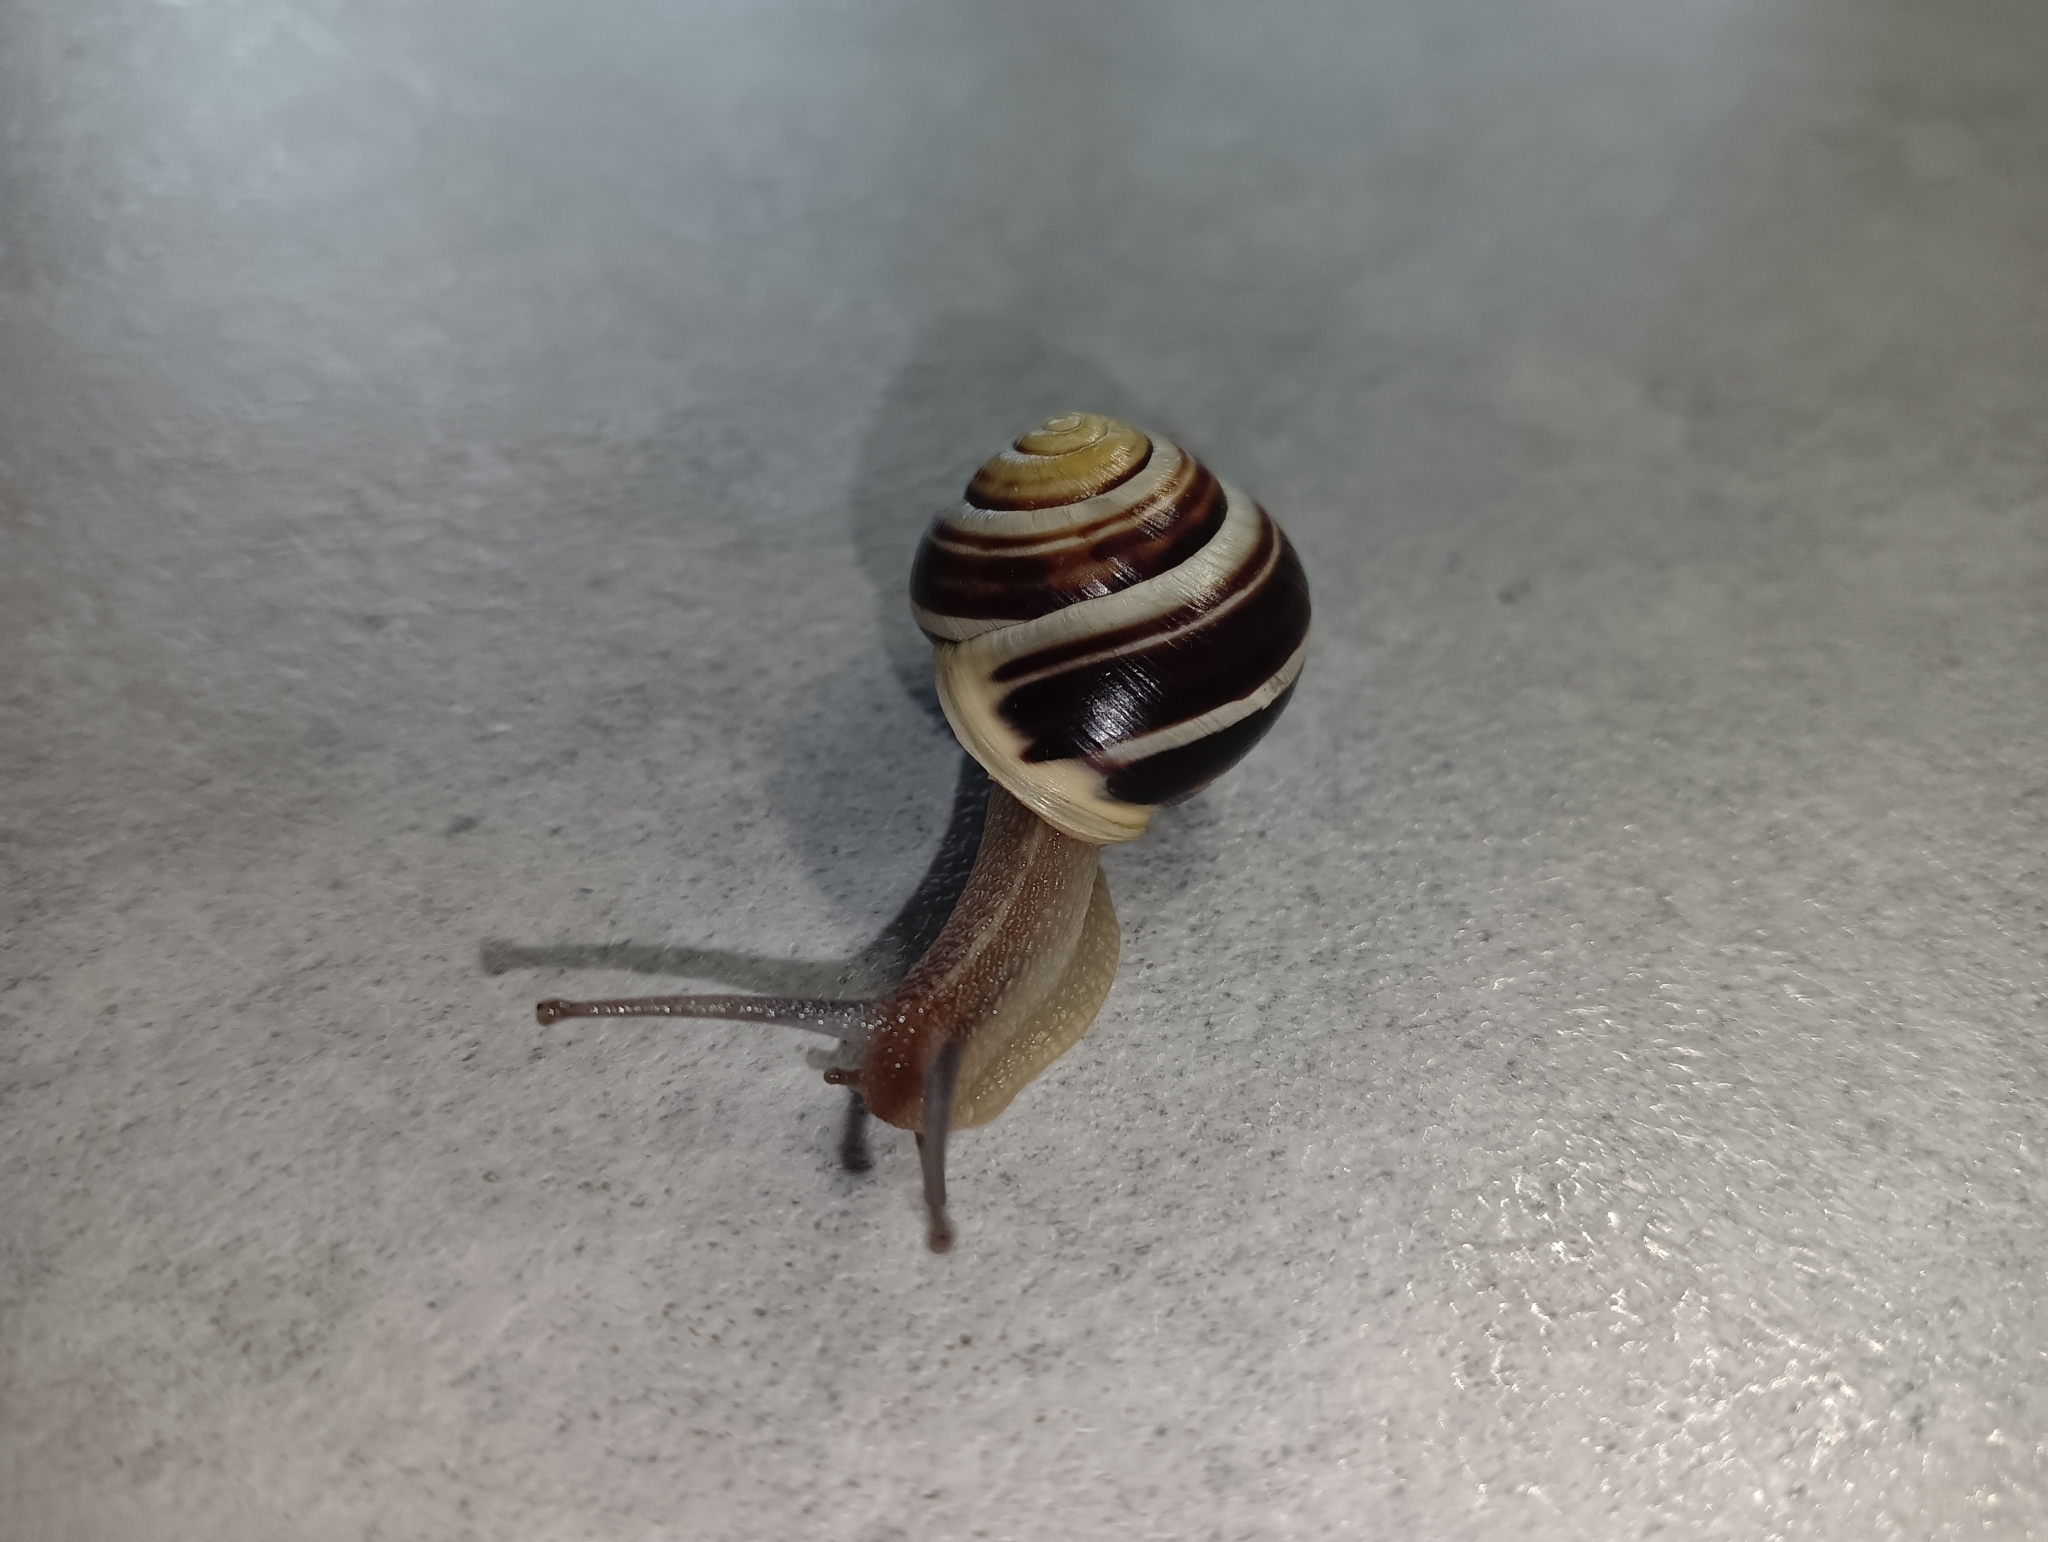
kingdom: Animalia
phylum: Mollusca
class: Gastropoda
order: Stylommatophora
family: Helicidae
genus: Cepaea
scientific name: Cepaea hortensis
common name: White-lip gardensnail
